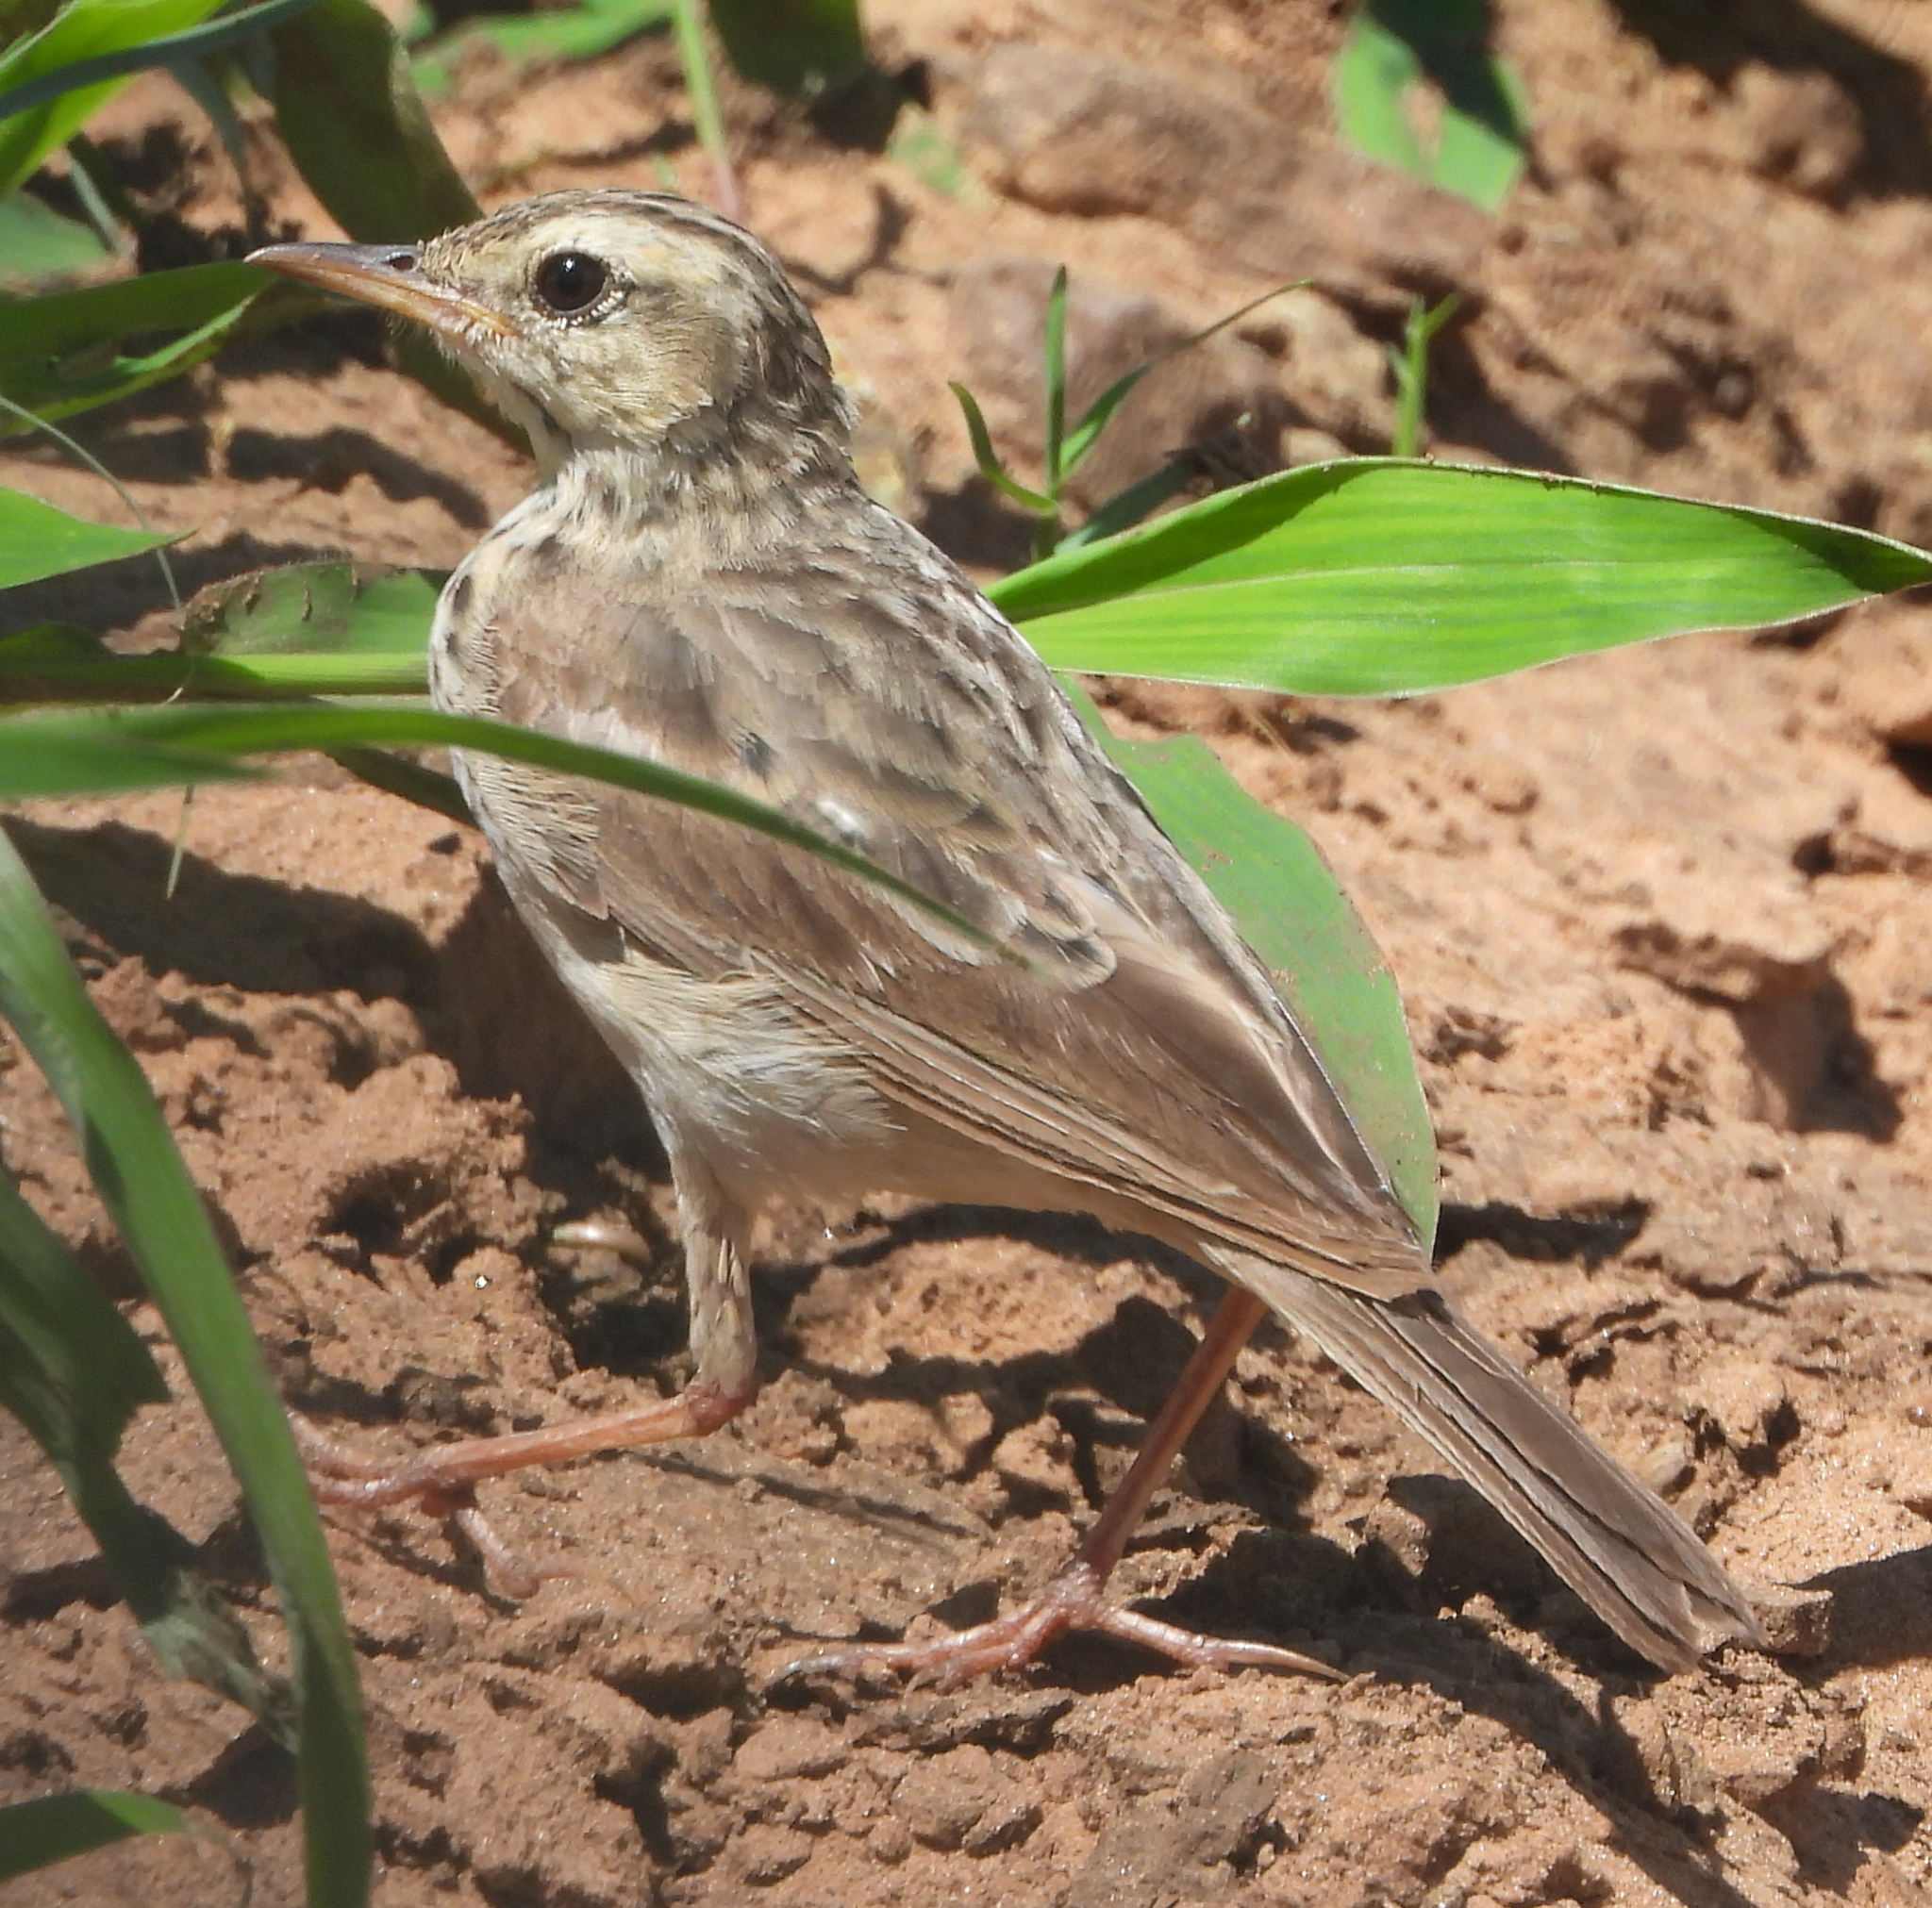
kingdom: Animalia
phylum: Chordata
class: Aves
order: Passeriformes
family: Motacillidae
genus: Anthus
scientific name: Anthus cinnamomeus
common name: African pipit
